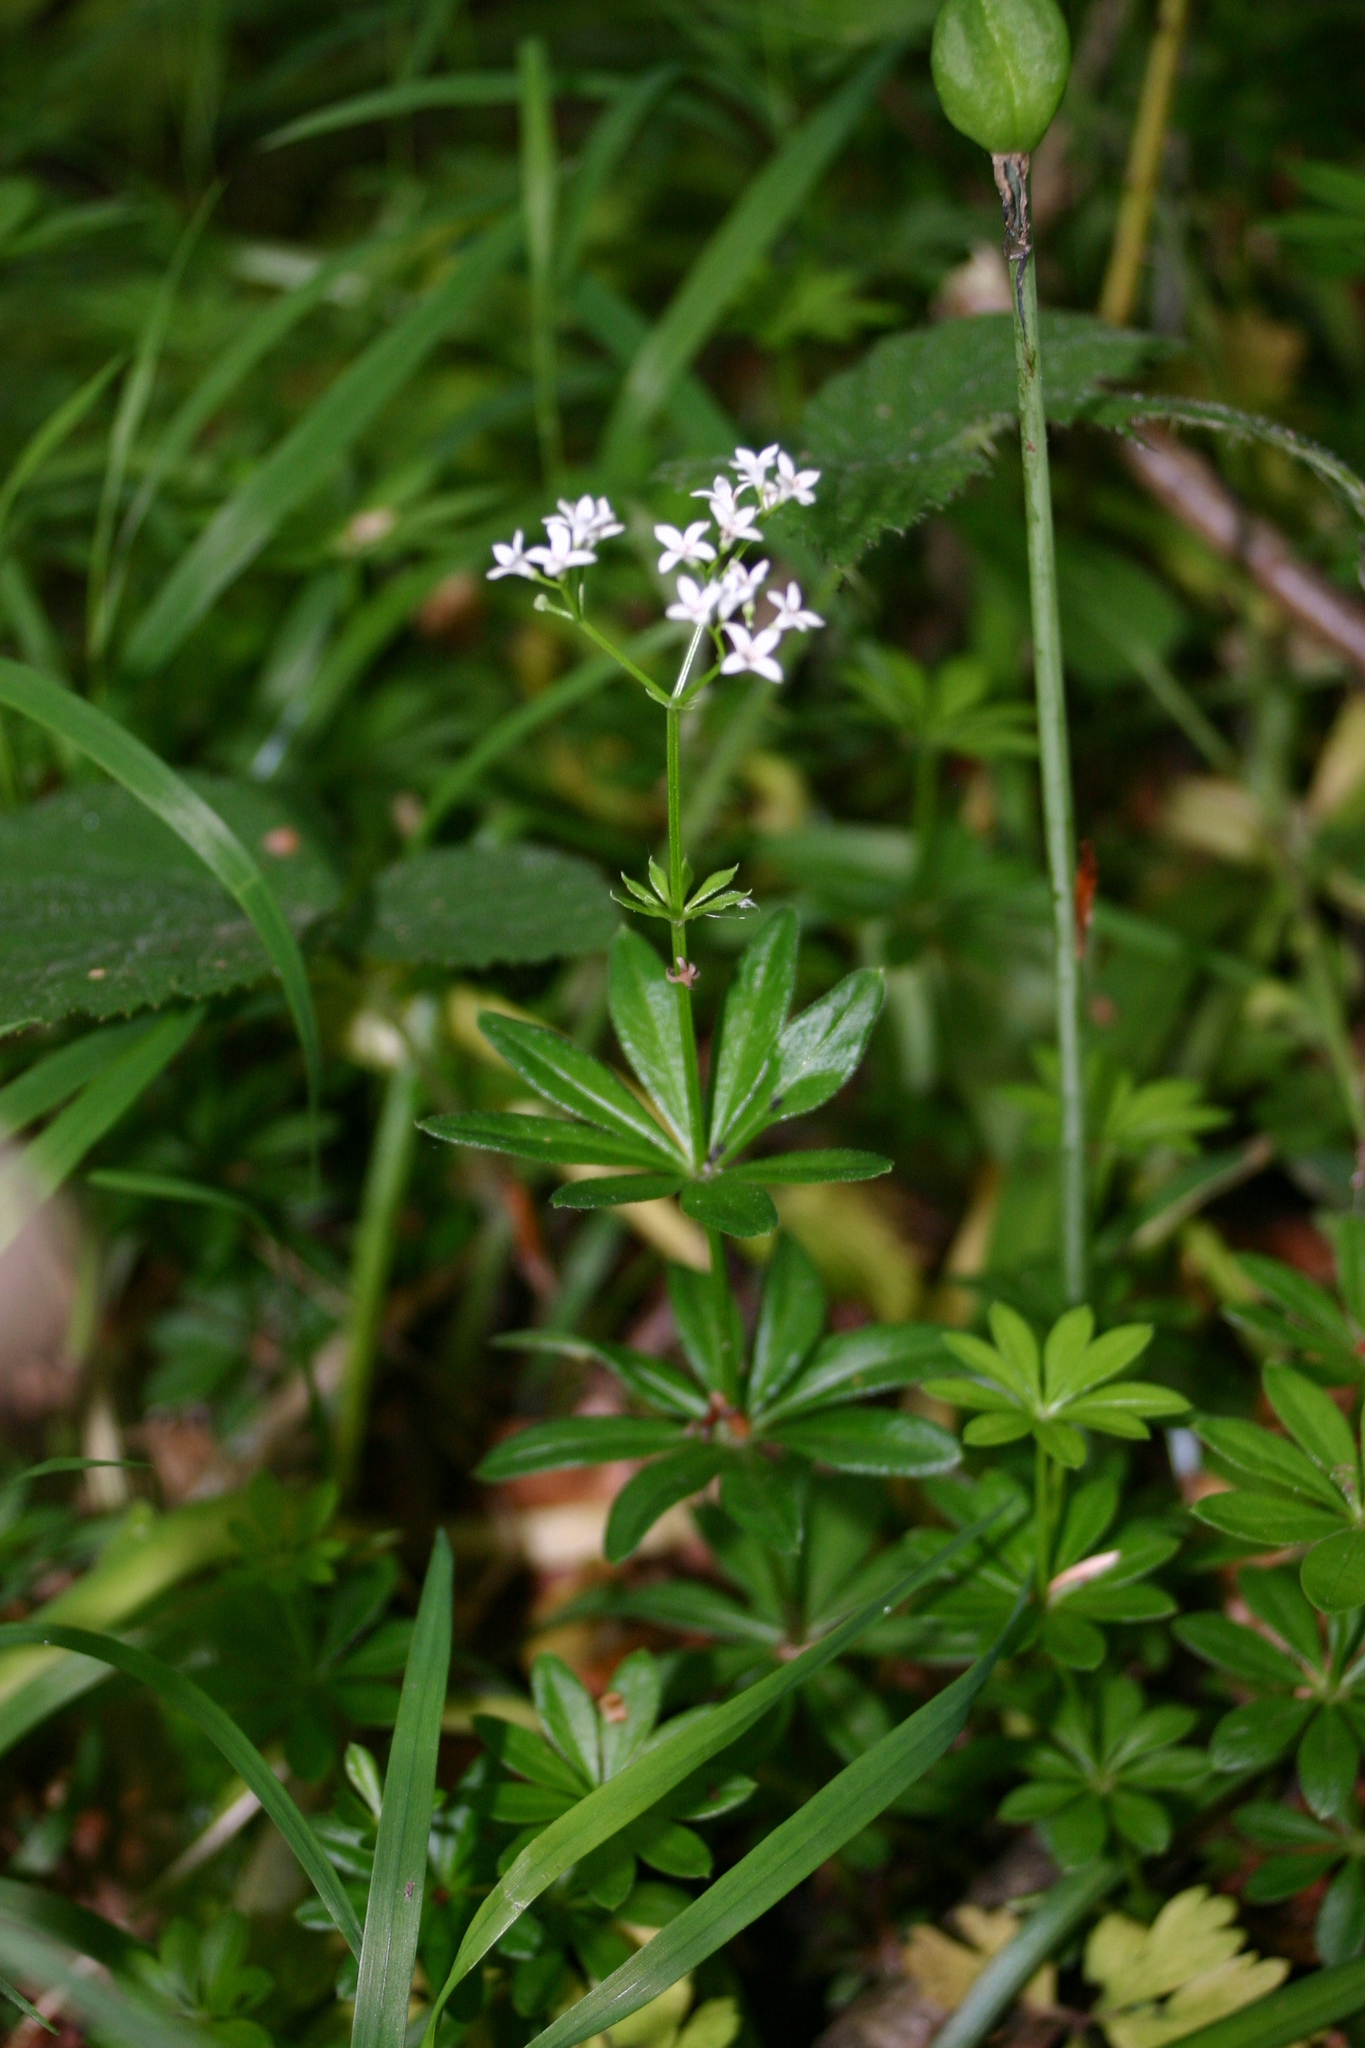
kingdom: Plantae
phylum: Tracheophyta
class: Magnoliopsida
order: Gentianales
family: Rubiaceae
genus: Galium
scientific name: Galium odoratum
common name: Sweet woodruff
